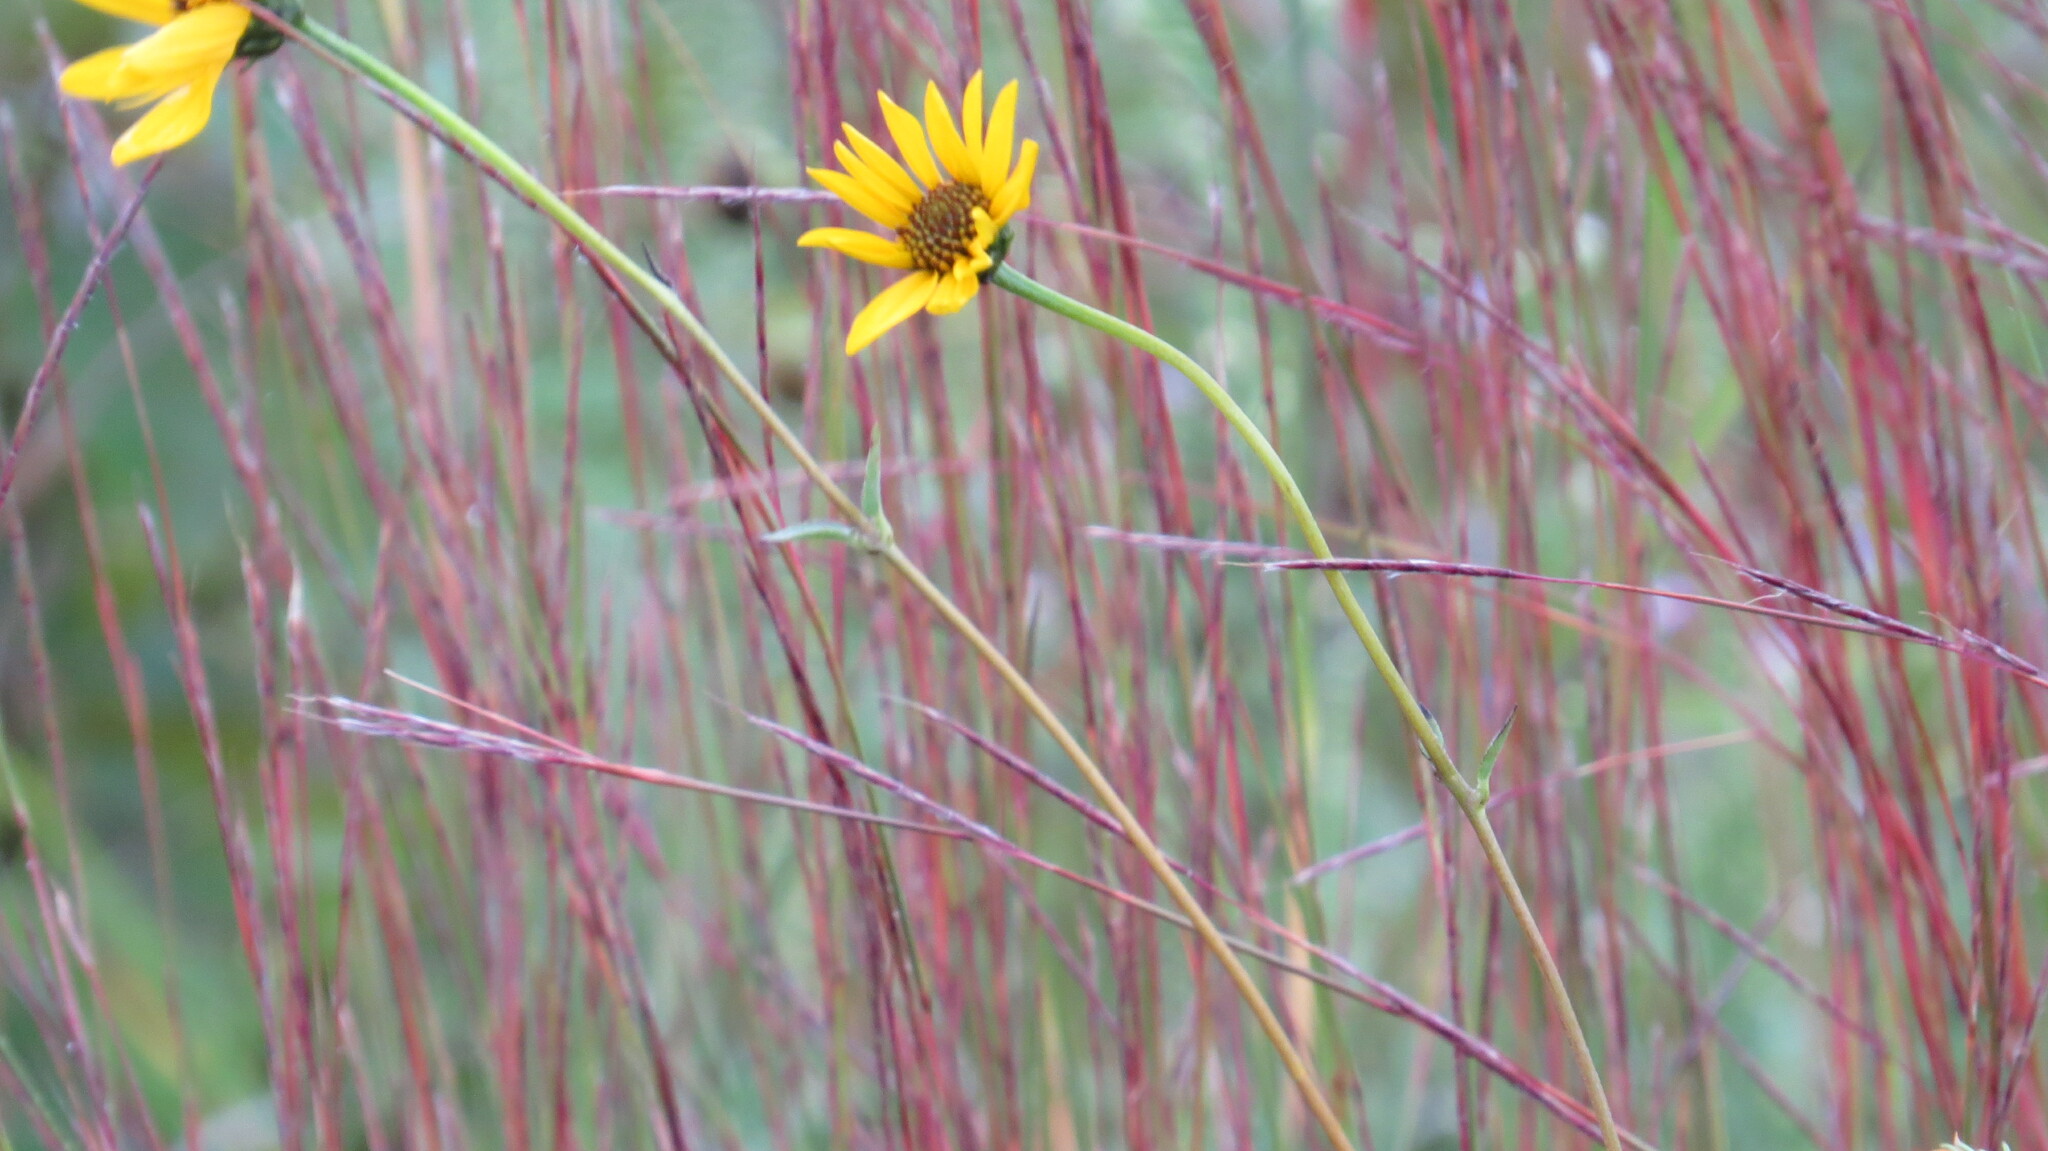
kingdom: Plantae
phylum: Tracheophyta
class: Magnoliopsida
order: Asterales
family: Asteraceae
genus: Helianthus
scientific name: Helianthus occidentalis
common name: Western sunflower
